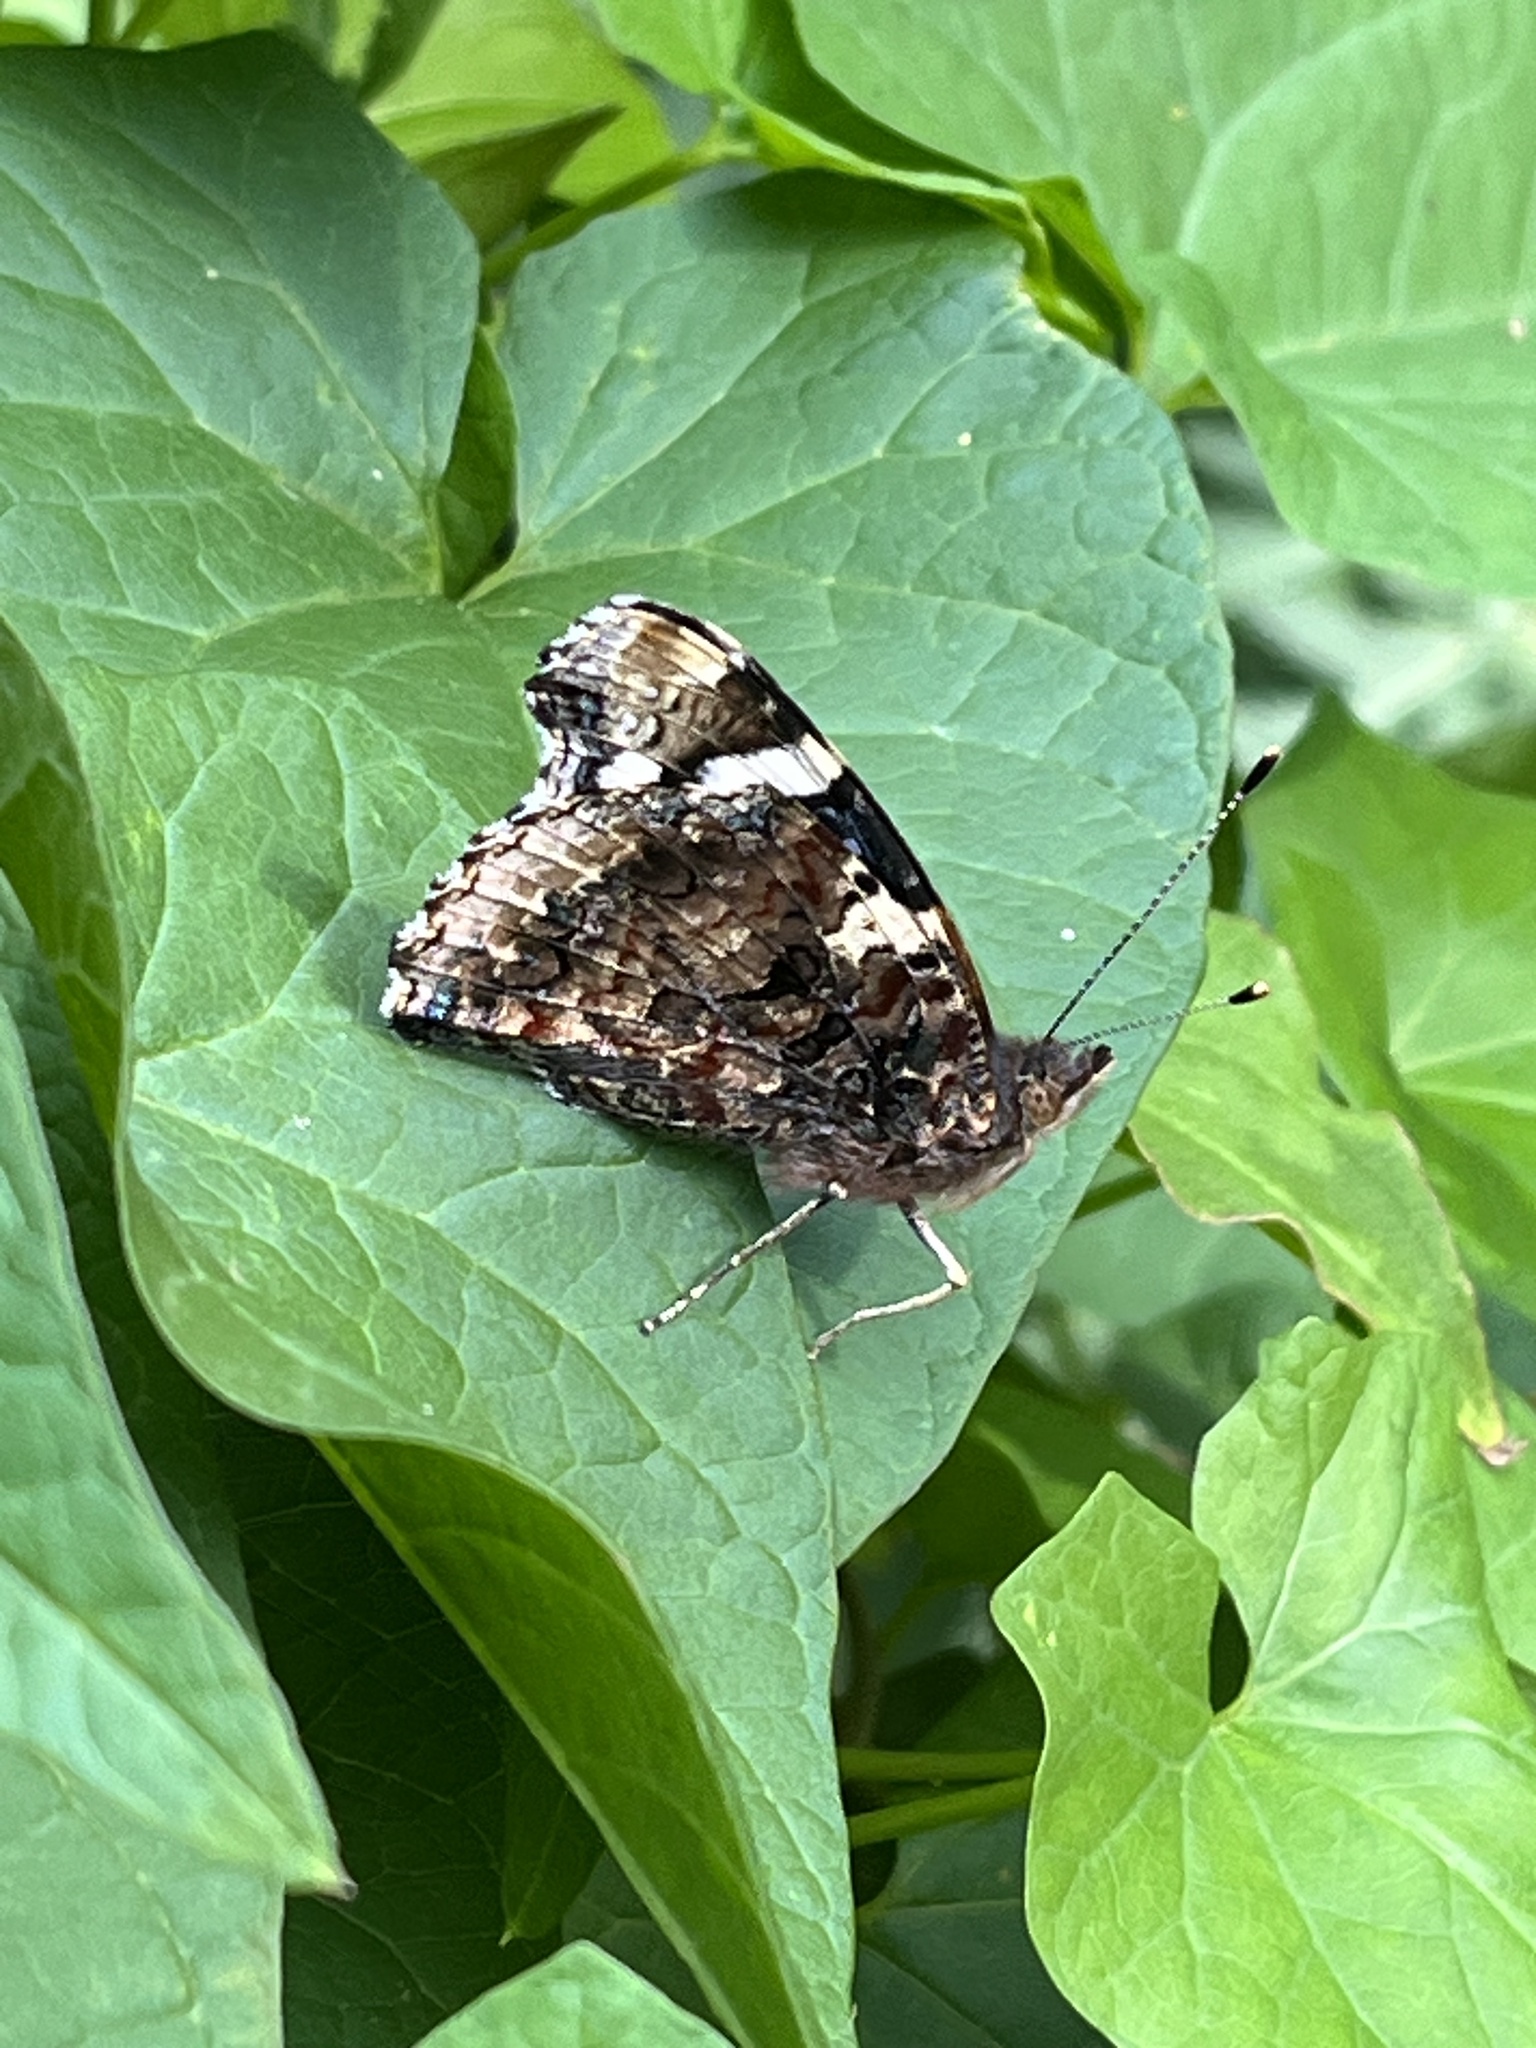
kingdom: Animalia
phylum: Arthropoda
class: Insecta
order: Lepidoptera
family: Nymphalidae
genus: Vanessa
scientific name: Vanessa atalanta
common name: Red admiral
